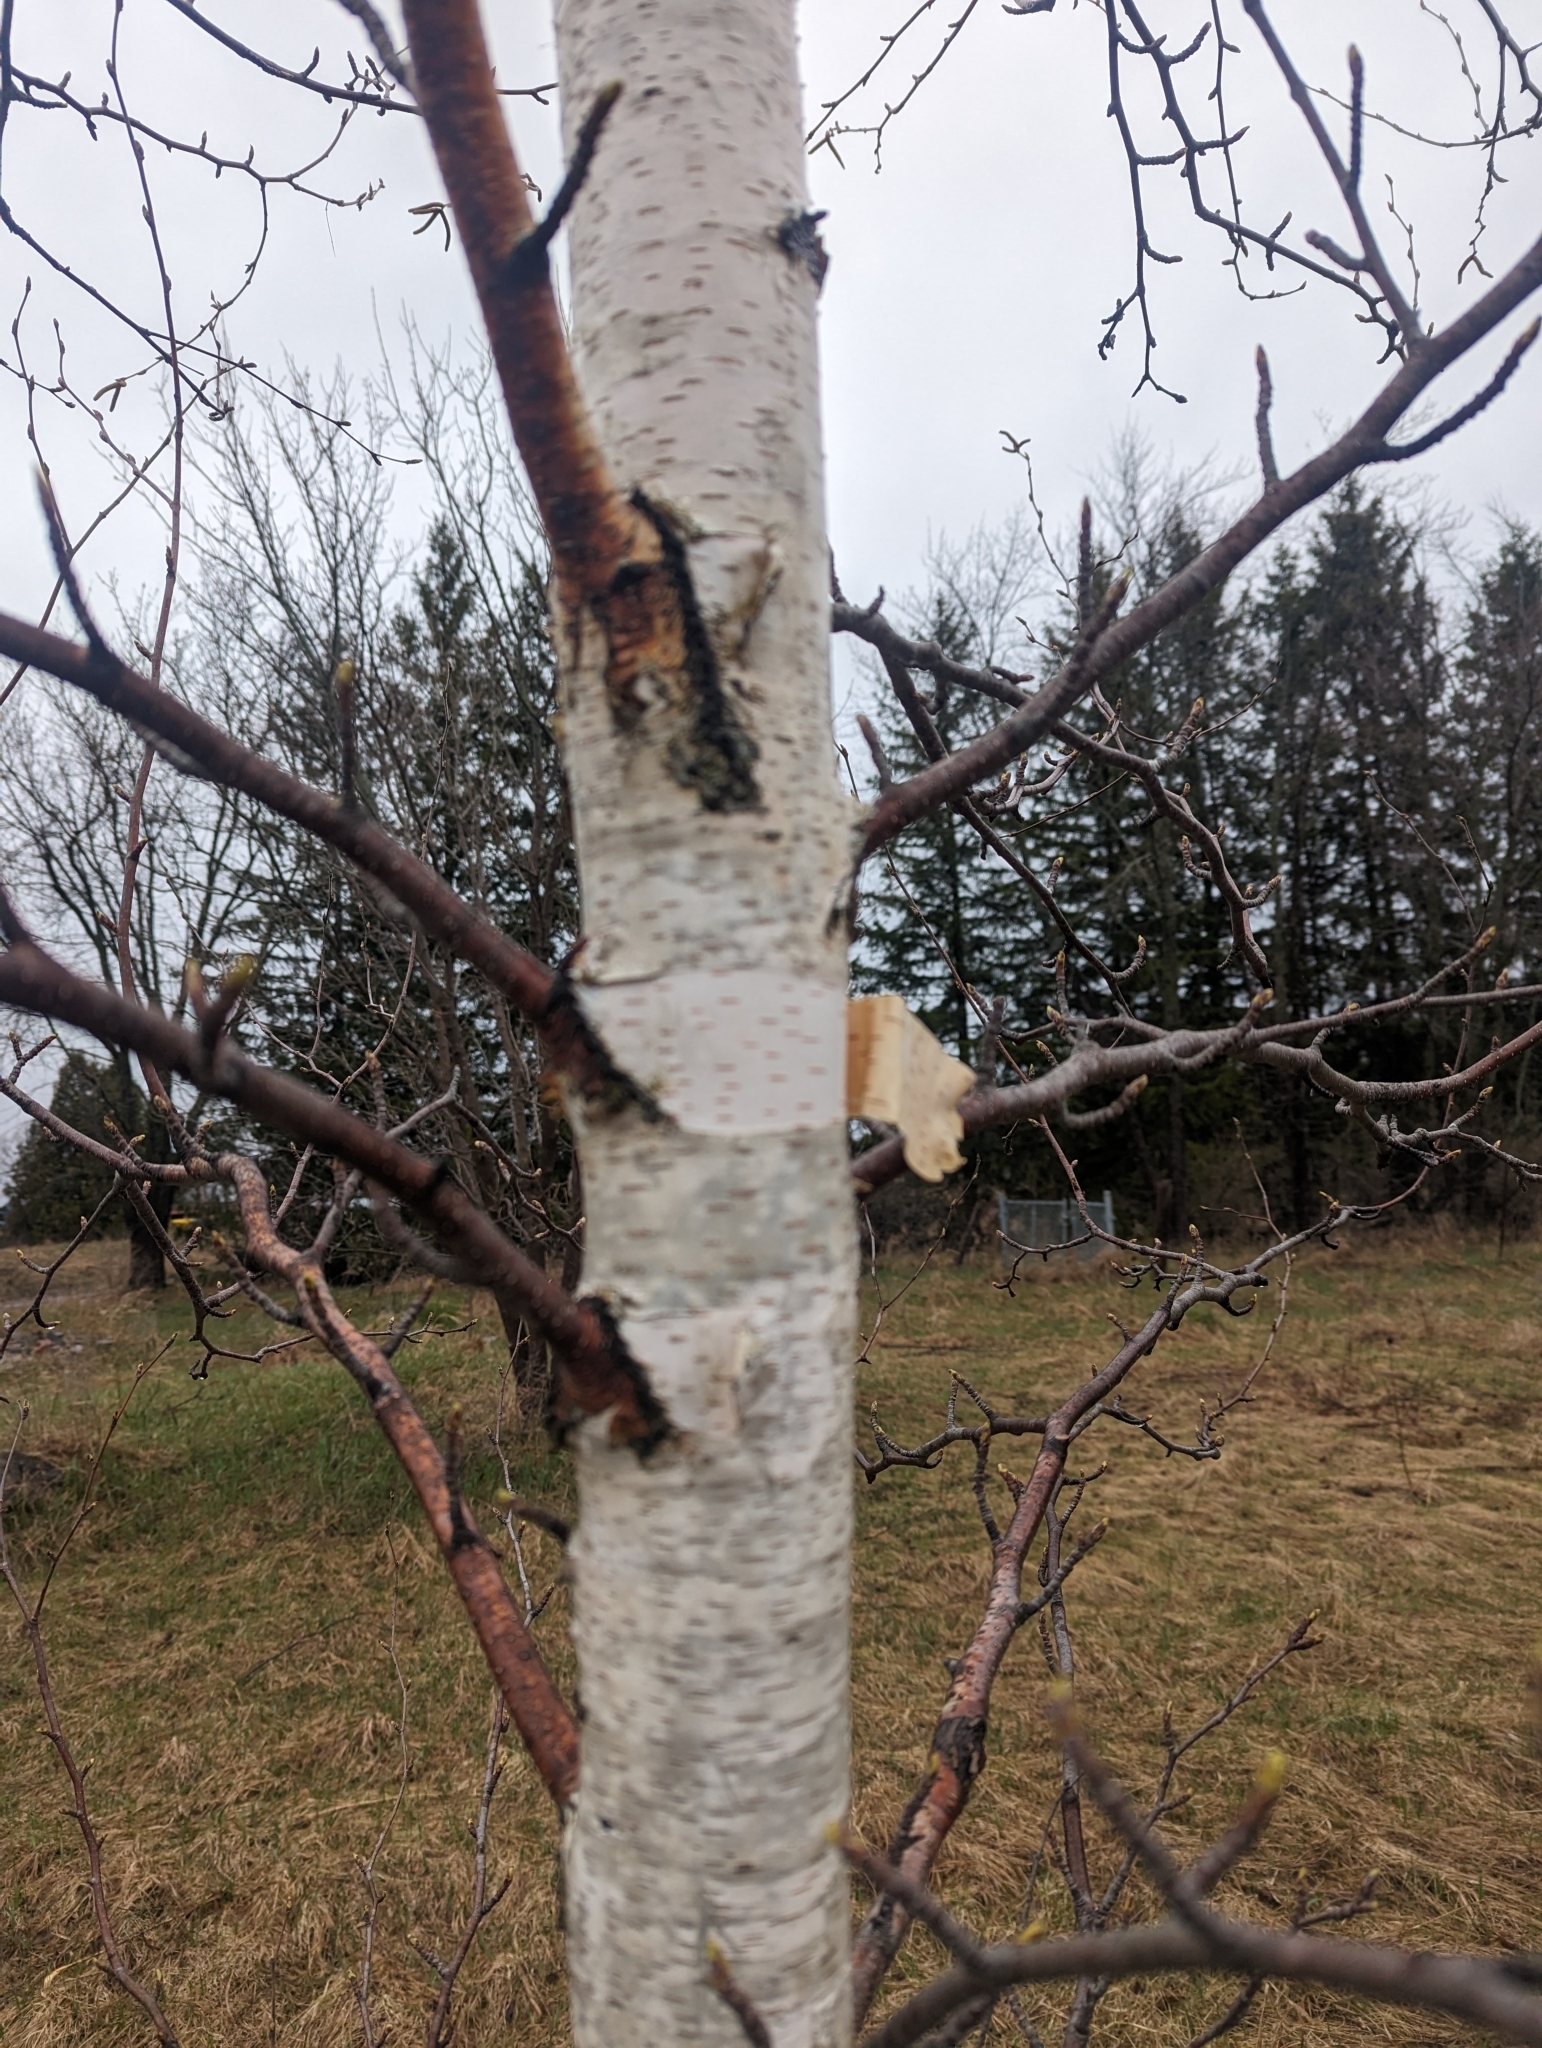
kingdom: Plantae
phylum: Tracheophyta
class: Magnoliopsida
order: Fagales
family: Betulaceae
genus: Betula
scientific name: Betula papyrifera
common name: Paper birch
